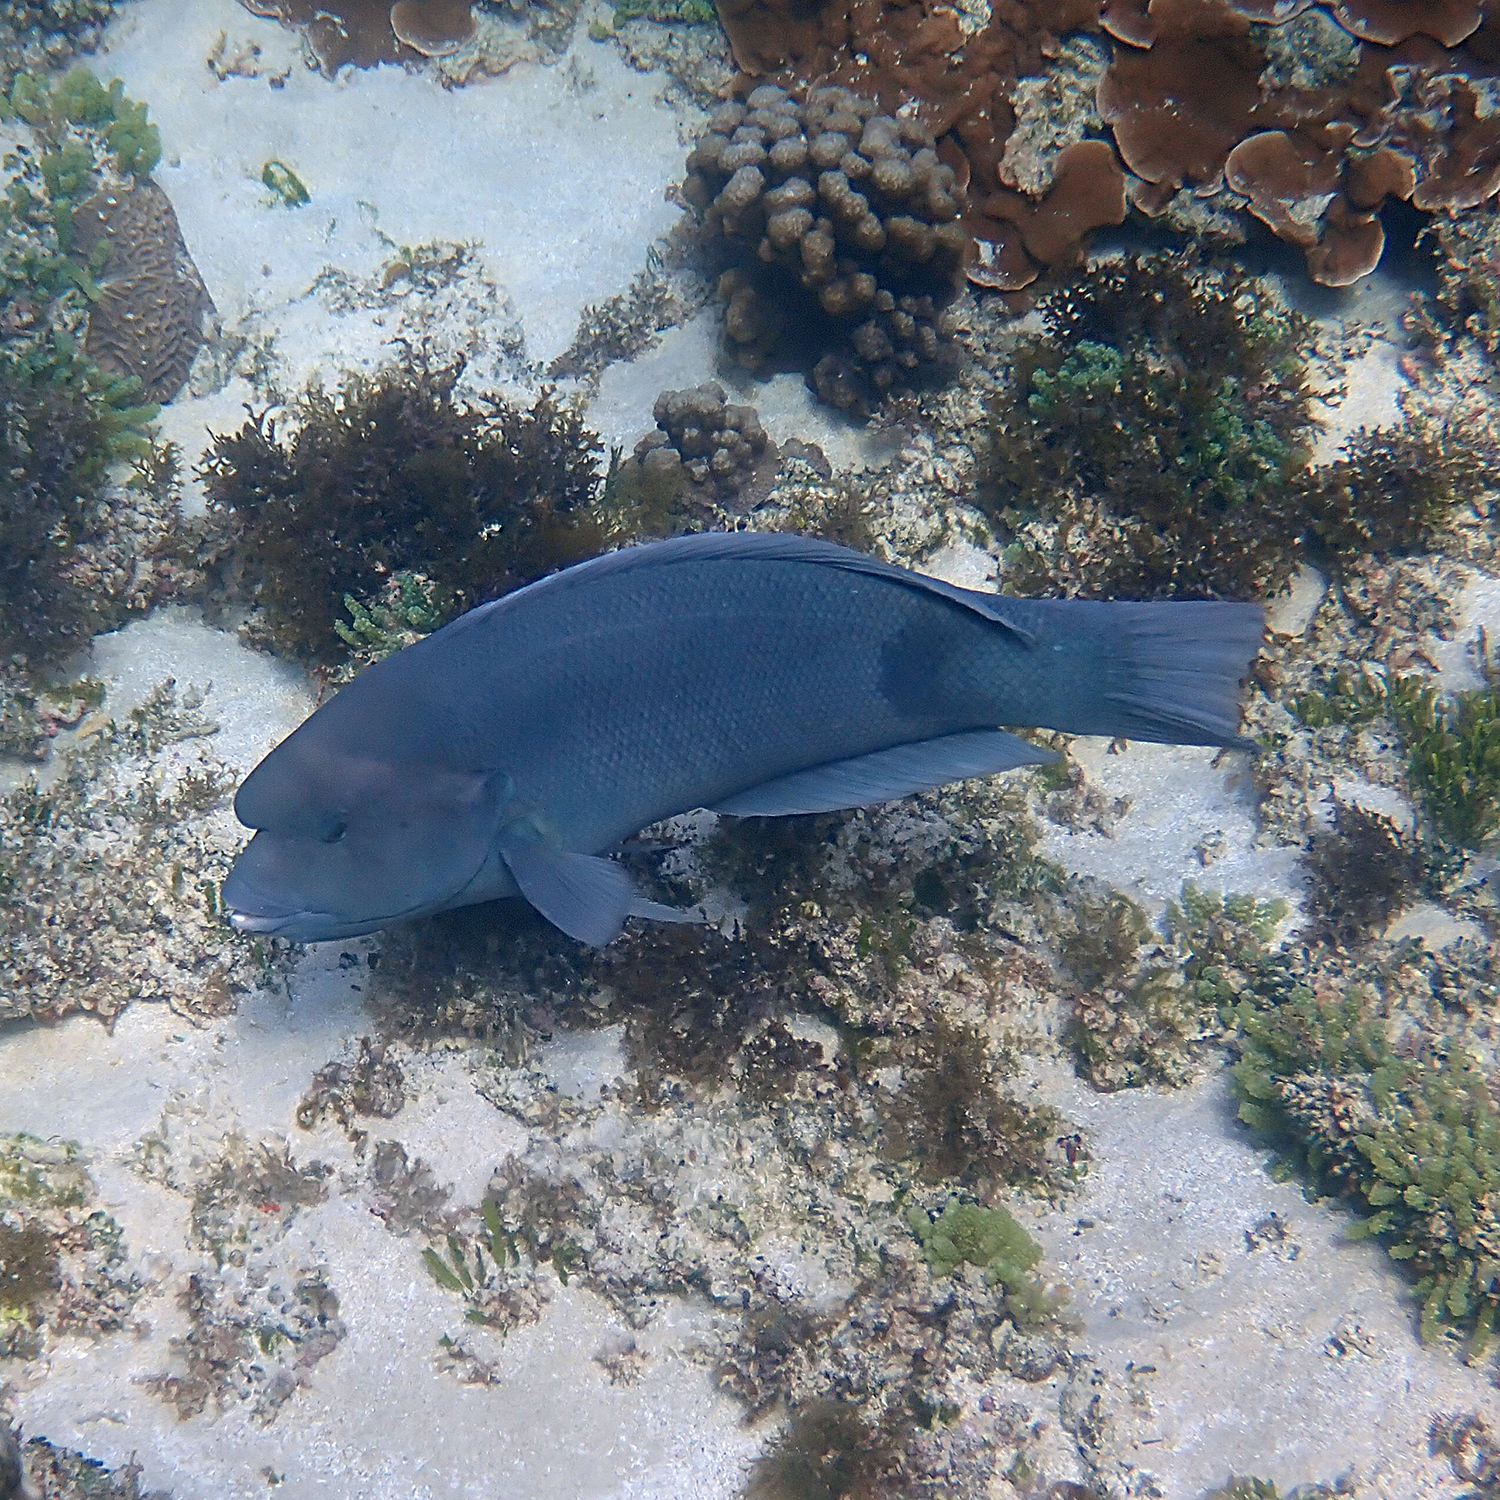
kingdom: Animalia
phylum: Chordata
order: Perciformes
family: Labridae
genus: Coris
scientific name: Coris bulbifrons
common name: Doubleheader
